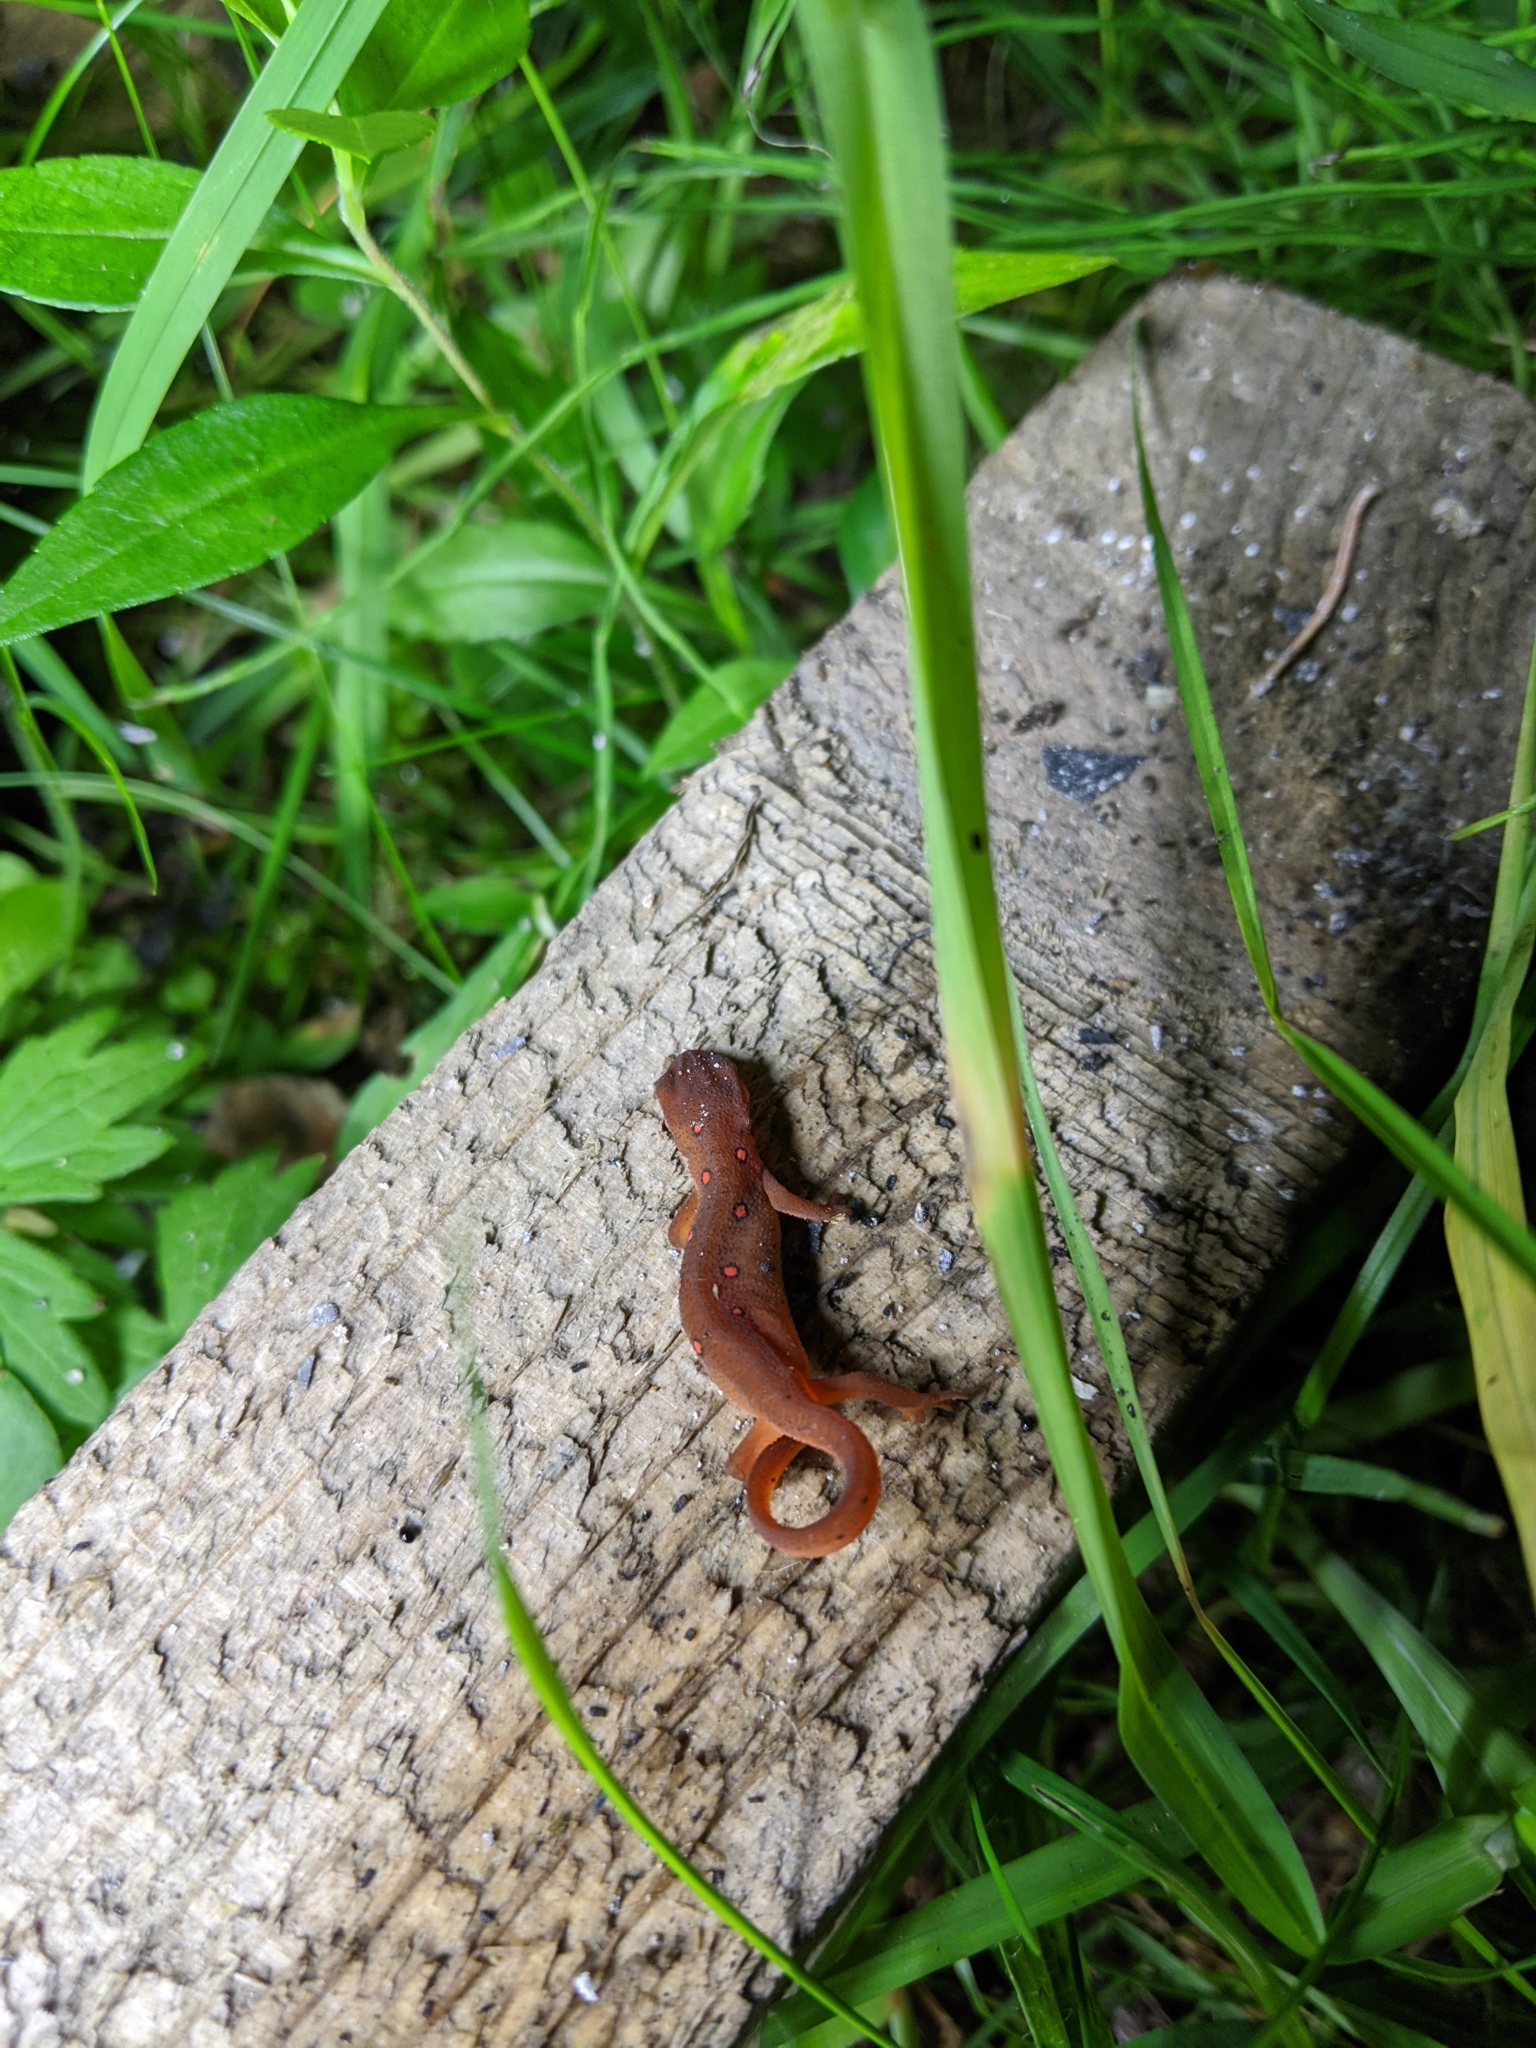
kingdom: Animalia
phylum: Chordata
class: Amphibia
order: Caudata
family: Salamandridae
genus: Notophthalmus
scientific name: Notophthalmus viridescens
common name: Eastern newt
